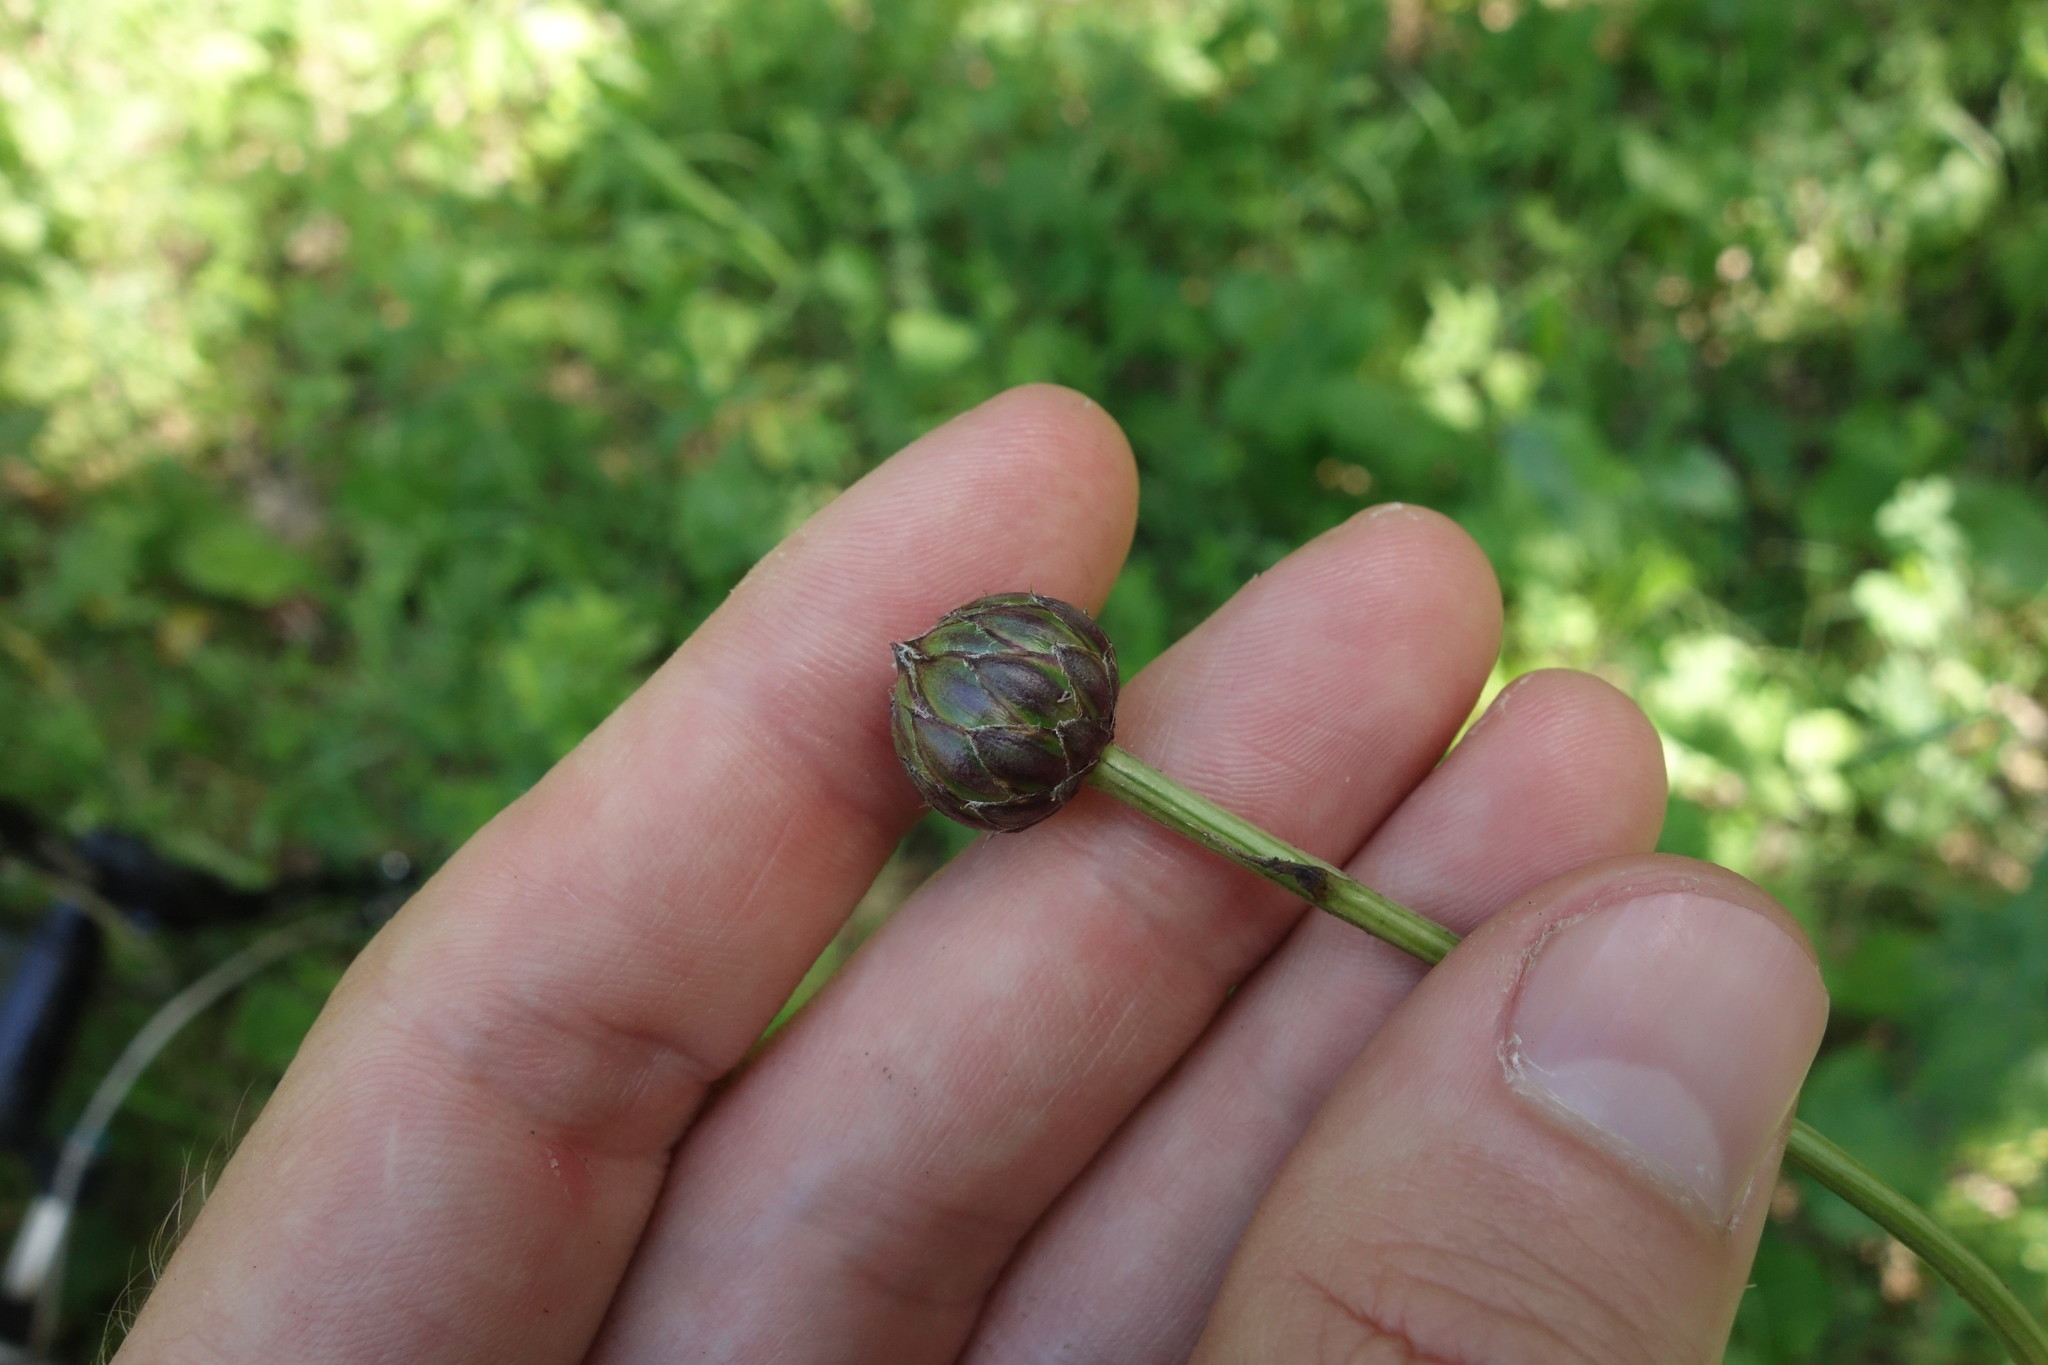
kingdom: Plantae
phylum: Tracheophyta
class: Magnoliopsida
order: Asterales
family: Asteraceae
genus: Klasea
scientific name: Klasea lycopifolia
